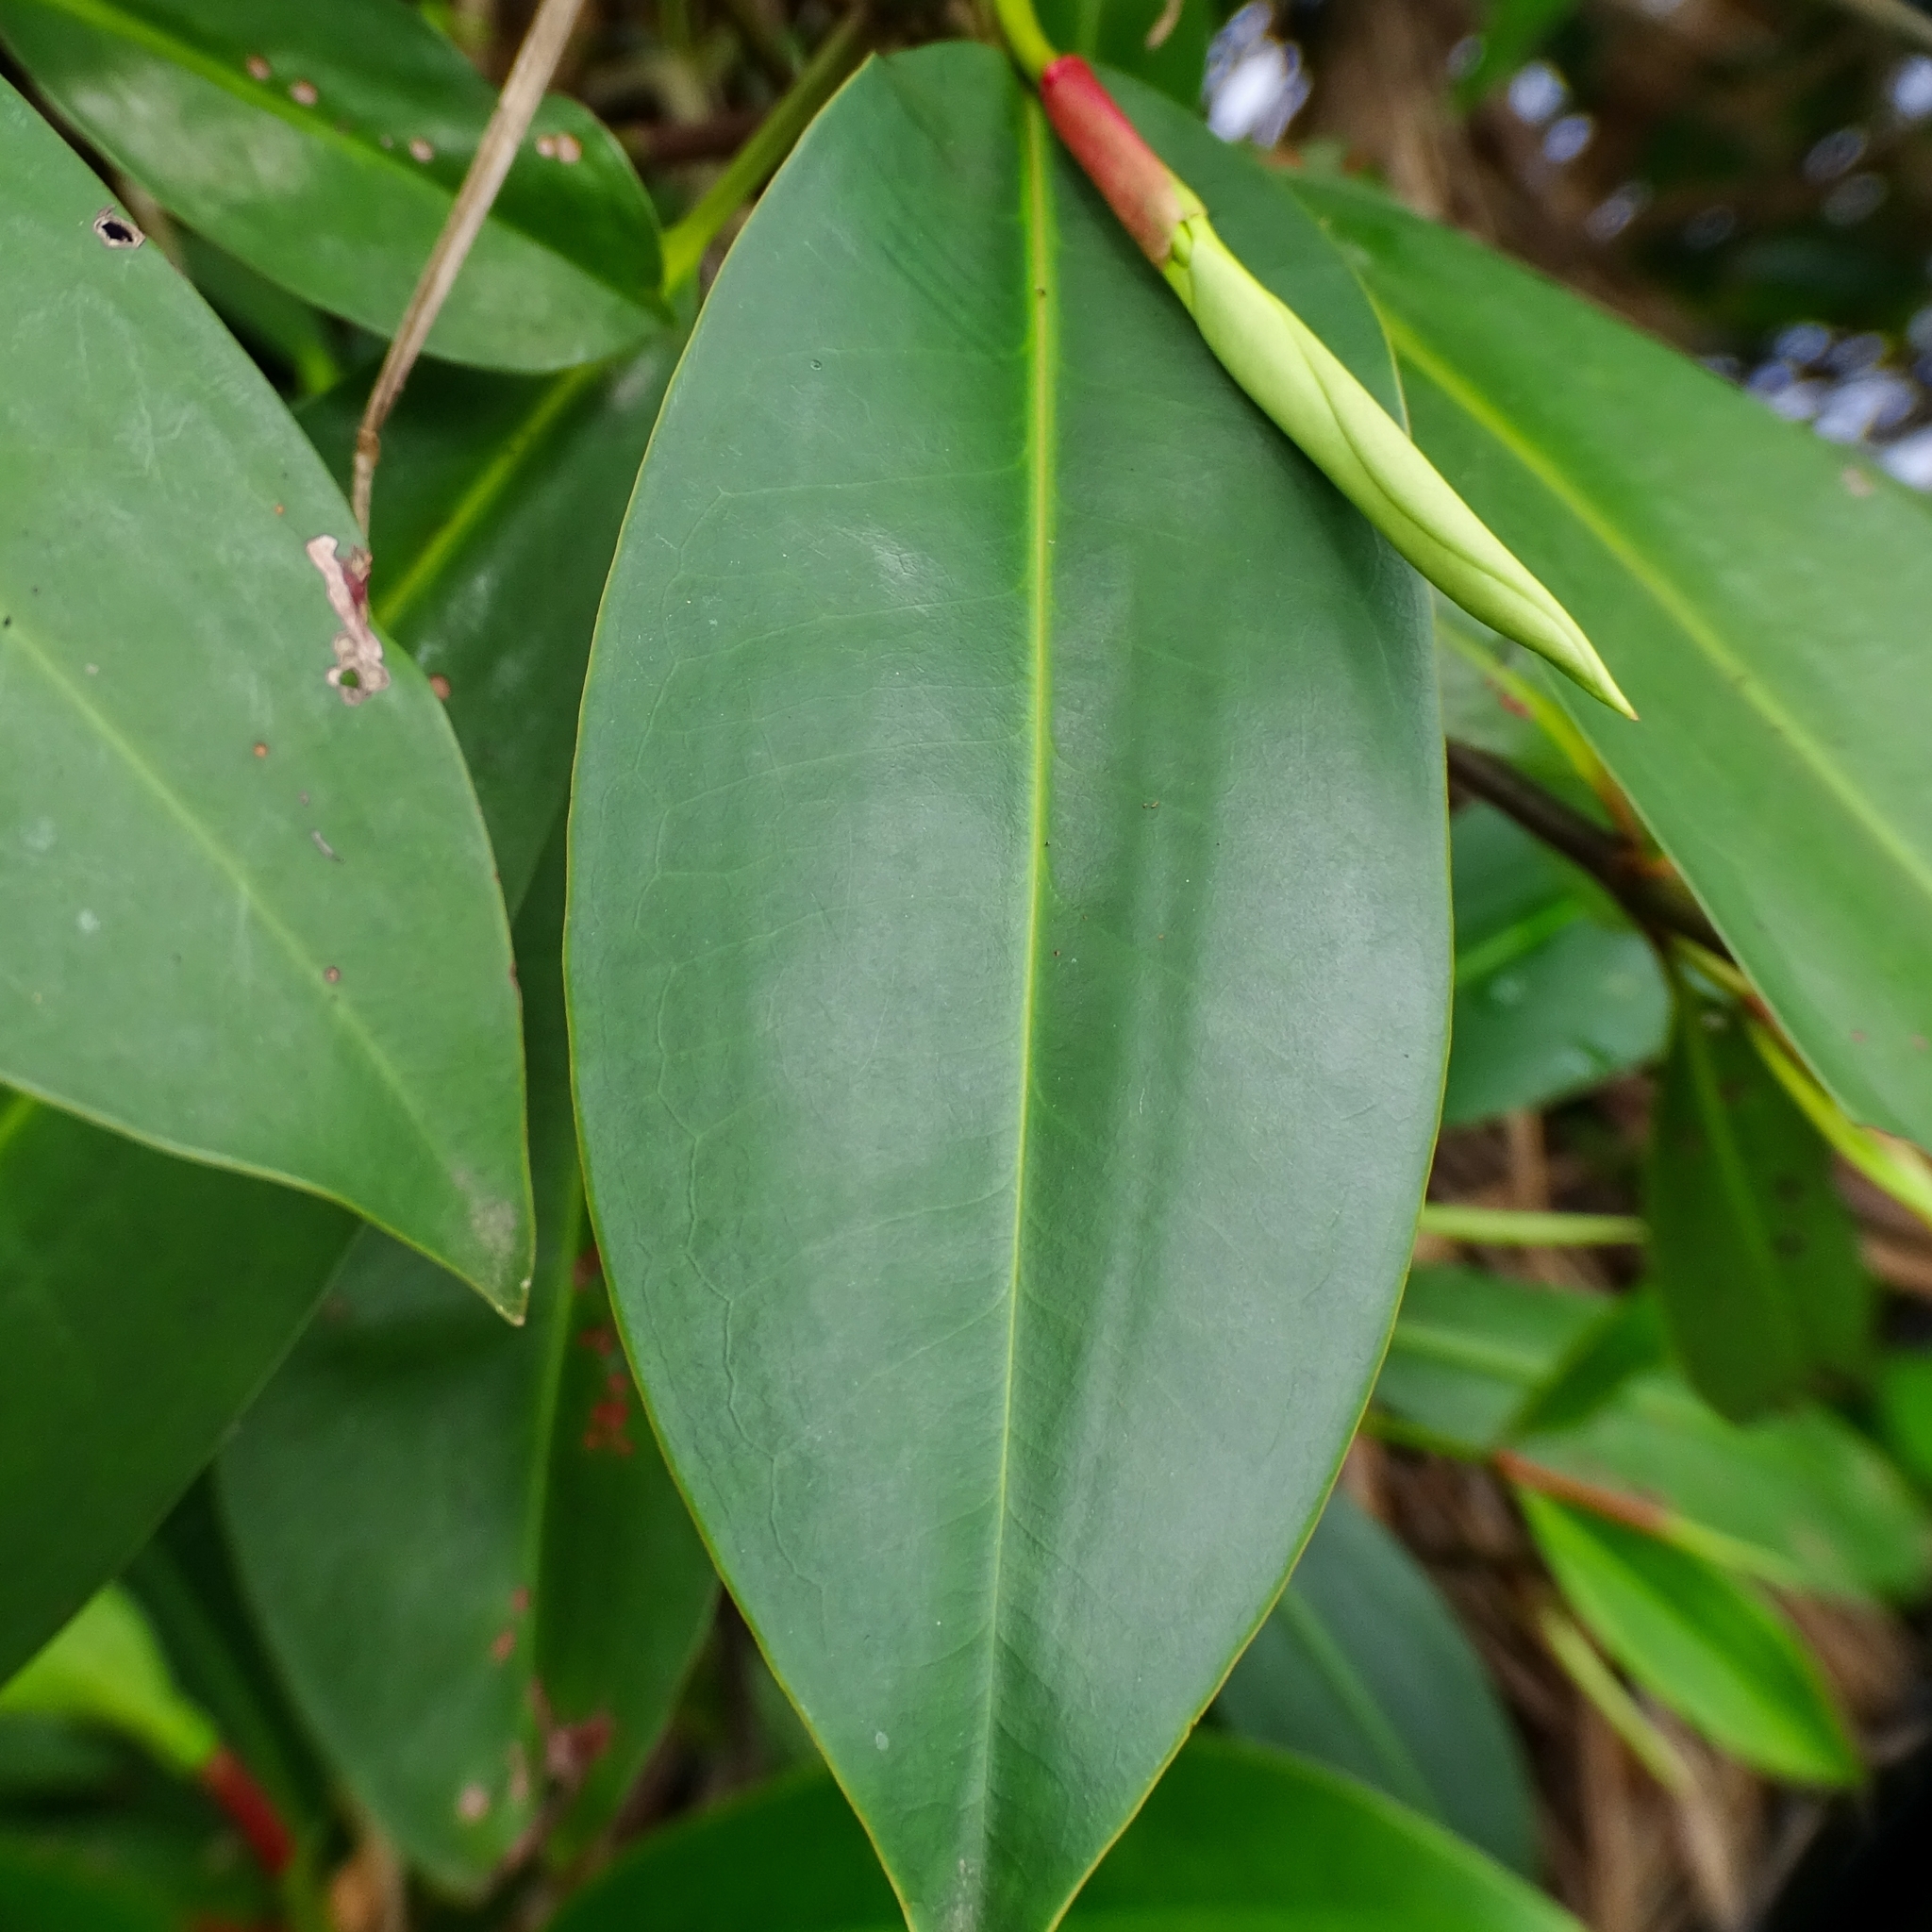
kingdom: Plantae
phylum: Tracheophyta
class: Magnoliopsida
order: Malpighiales
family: Rhizophoraceae
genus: Bruguiera
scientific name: Bruguiera sexangula
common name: Oriental mangrove
